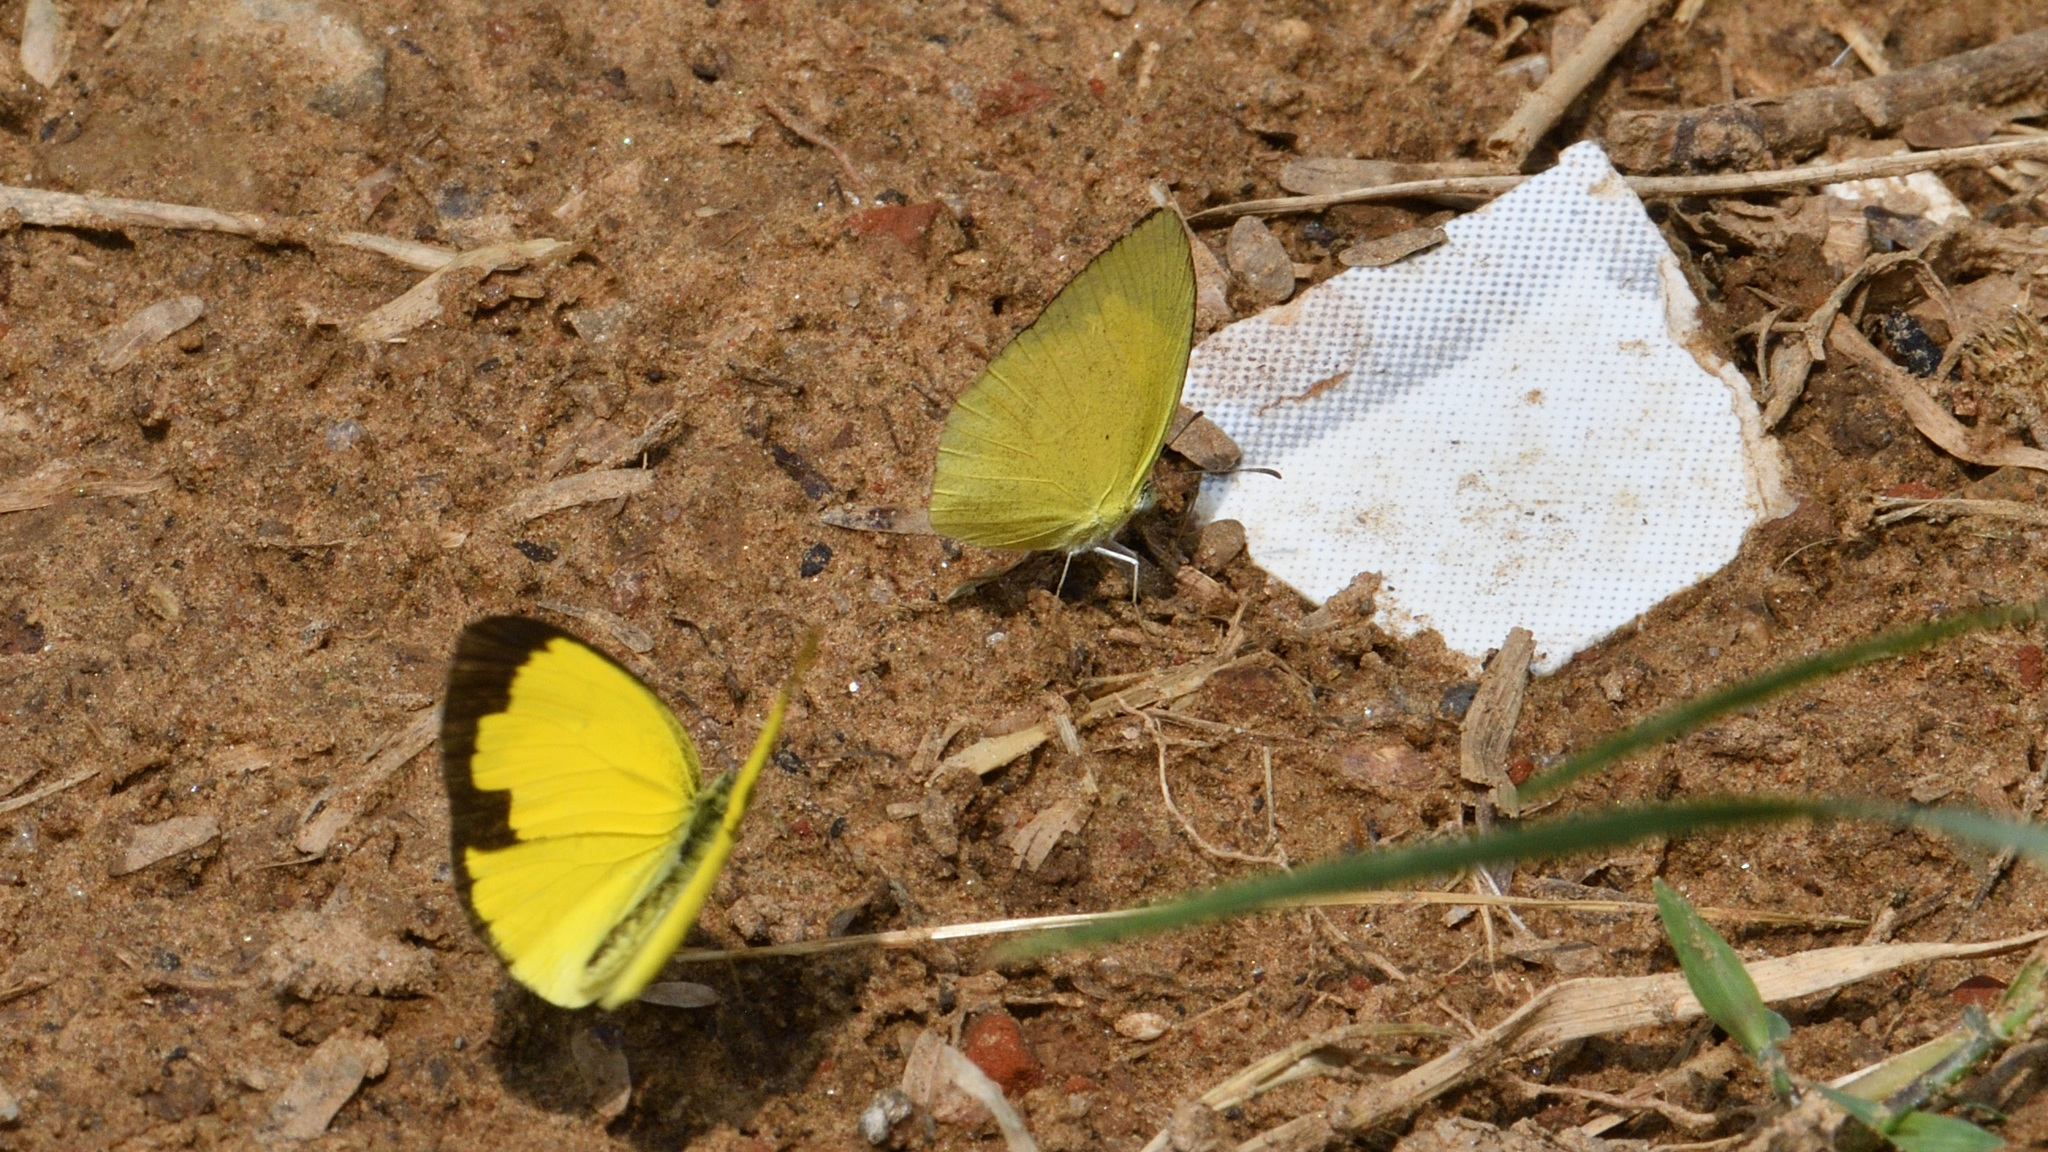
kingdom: Animalia
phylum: Arthropoda
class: Insecta
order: Lepidoptera
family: Pieridae
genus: Eurema
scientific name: Eurema laeta
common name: Spotless grass yellow
